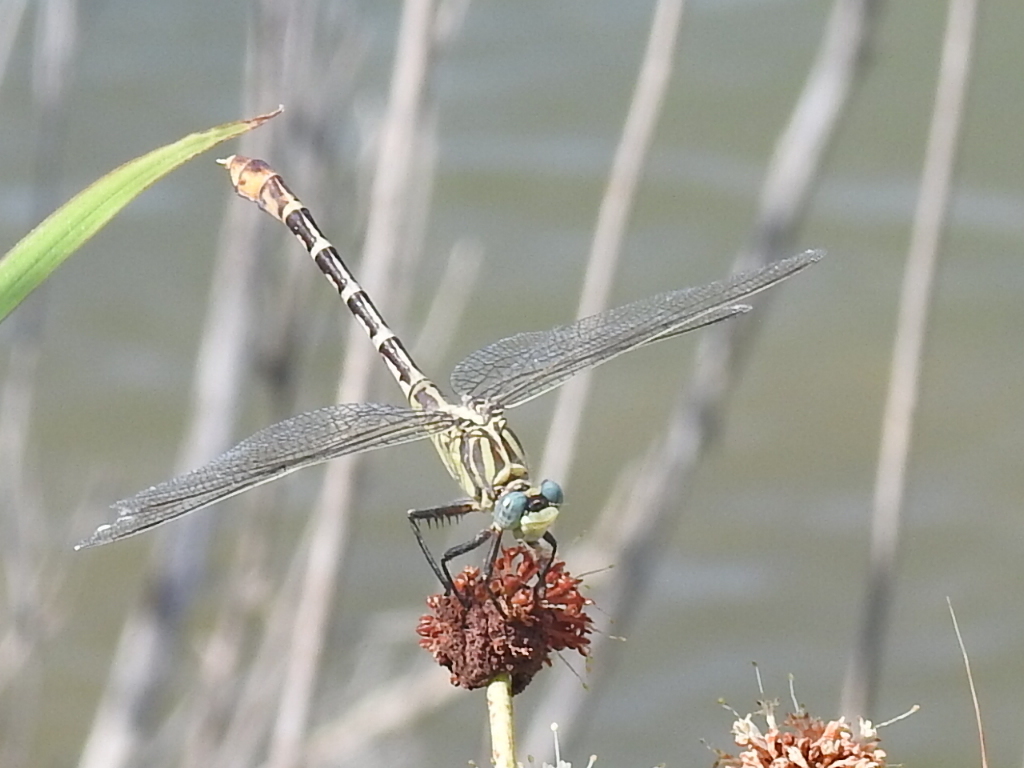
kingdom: Animalia
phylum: Arthropoda
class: Insecta
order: Odonata
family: Gomphidae
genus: Dromogomphus
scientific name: Dromogomphus spoliatus
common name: Flag-tailed spinyleg
